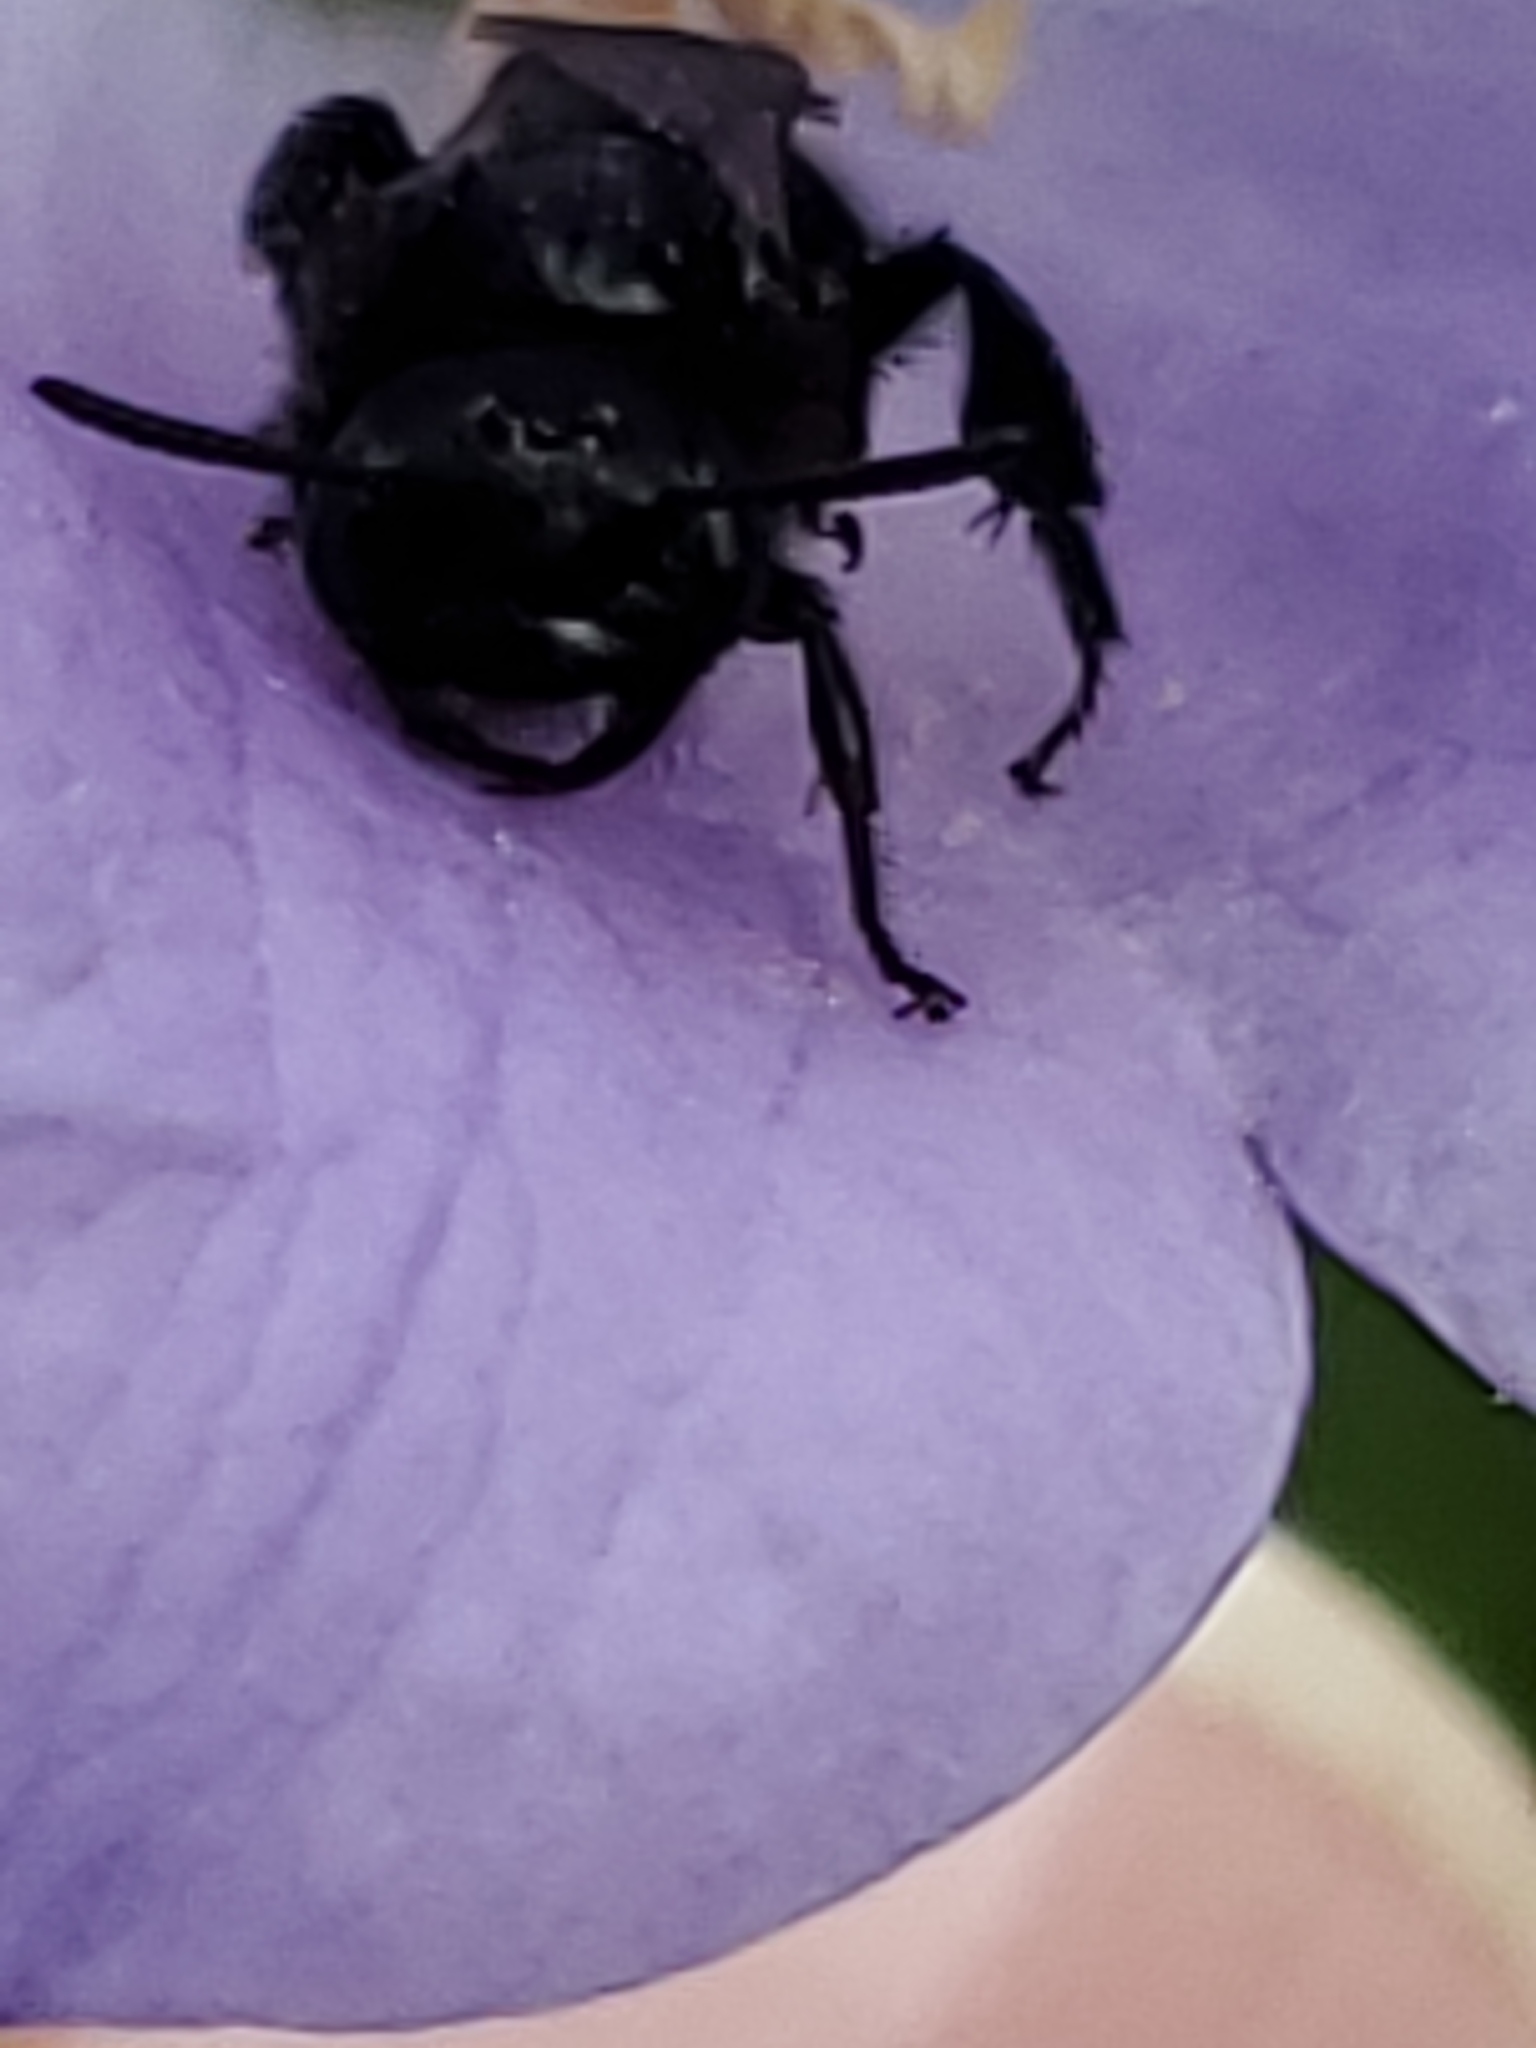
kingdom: Animalia
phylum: Arthropoda
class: Insecta
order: Hymenoptera
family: Halictidae
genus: Dufourea
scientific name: Dufourea maura
